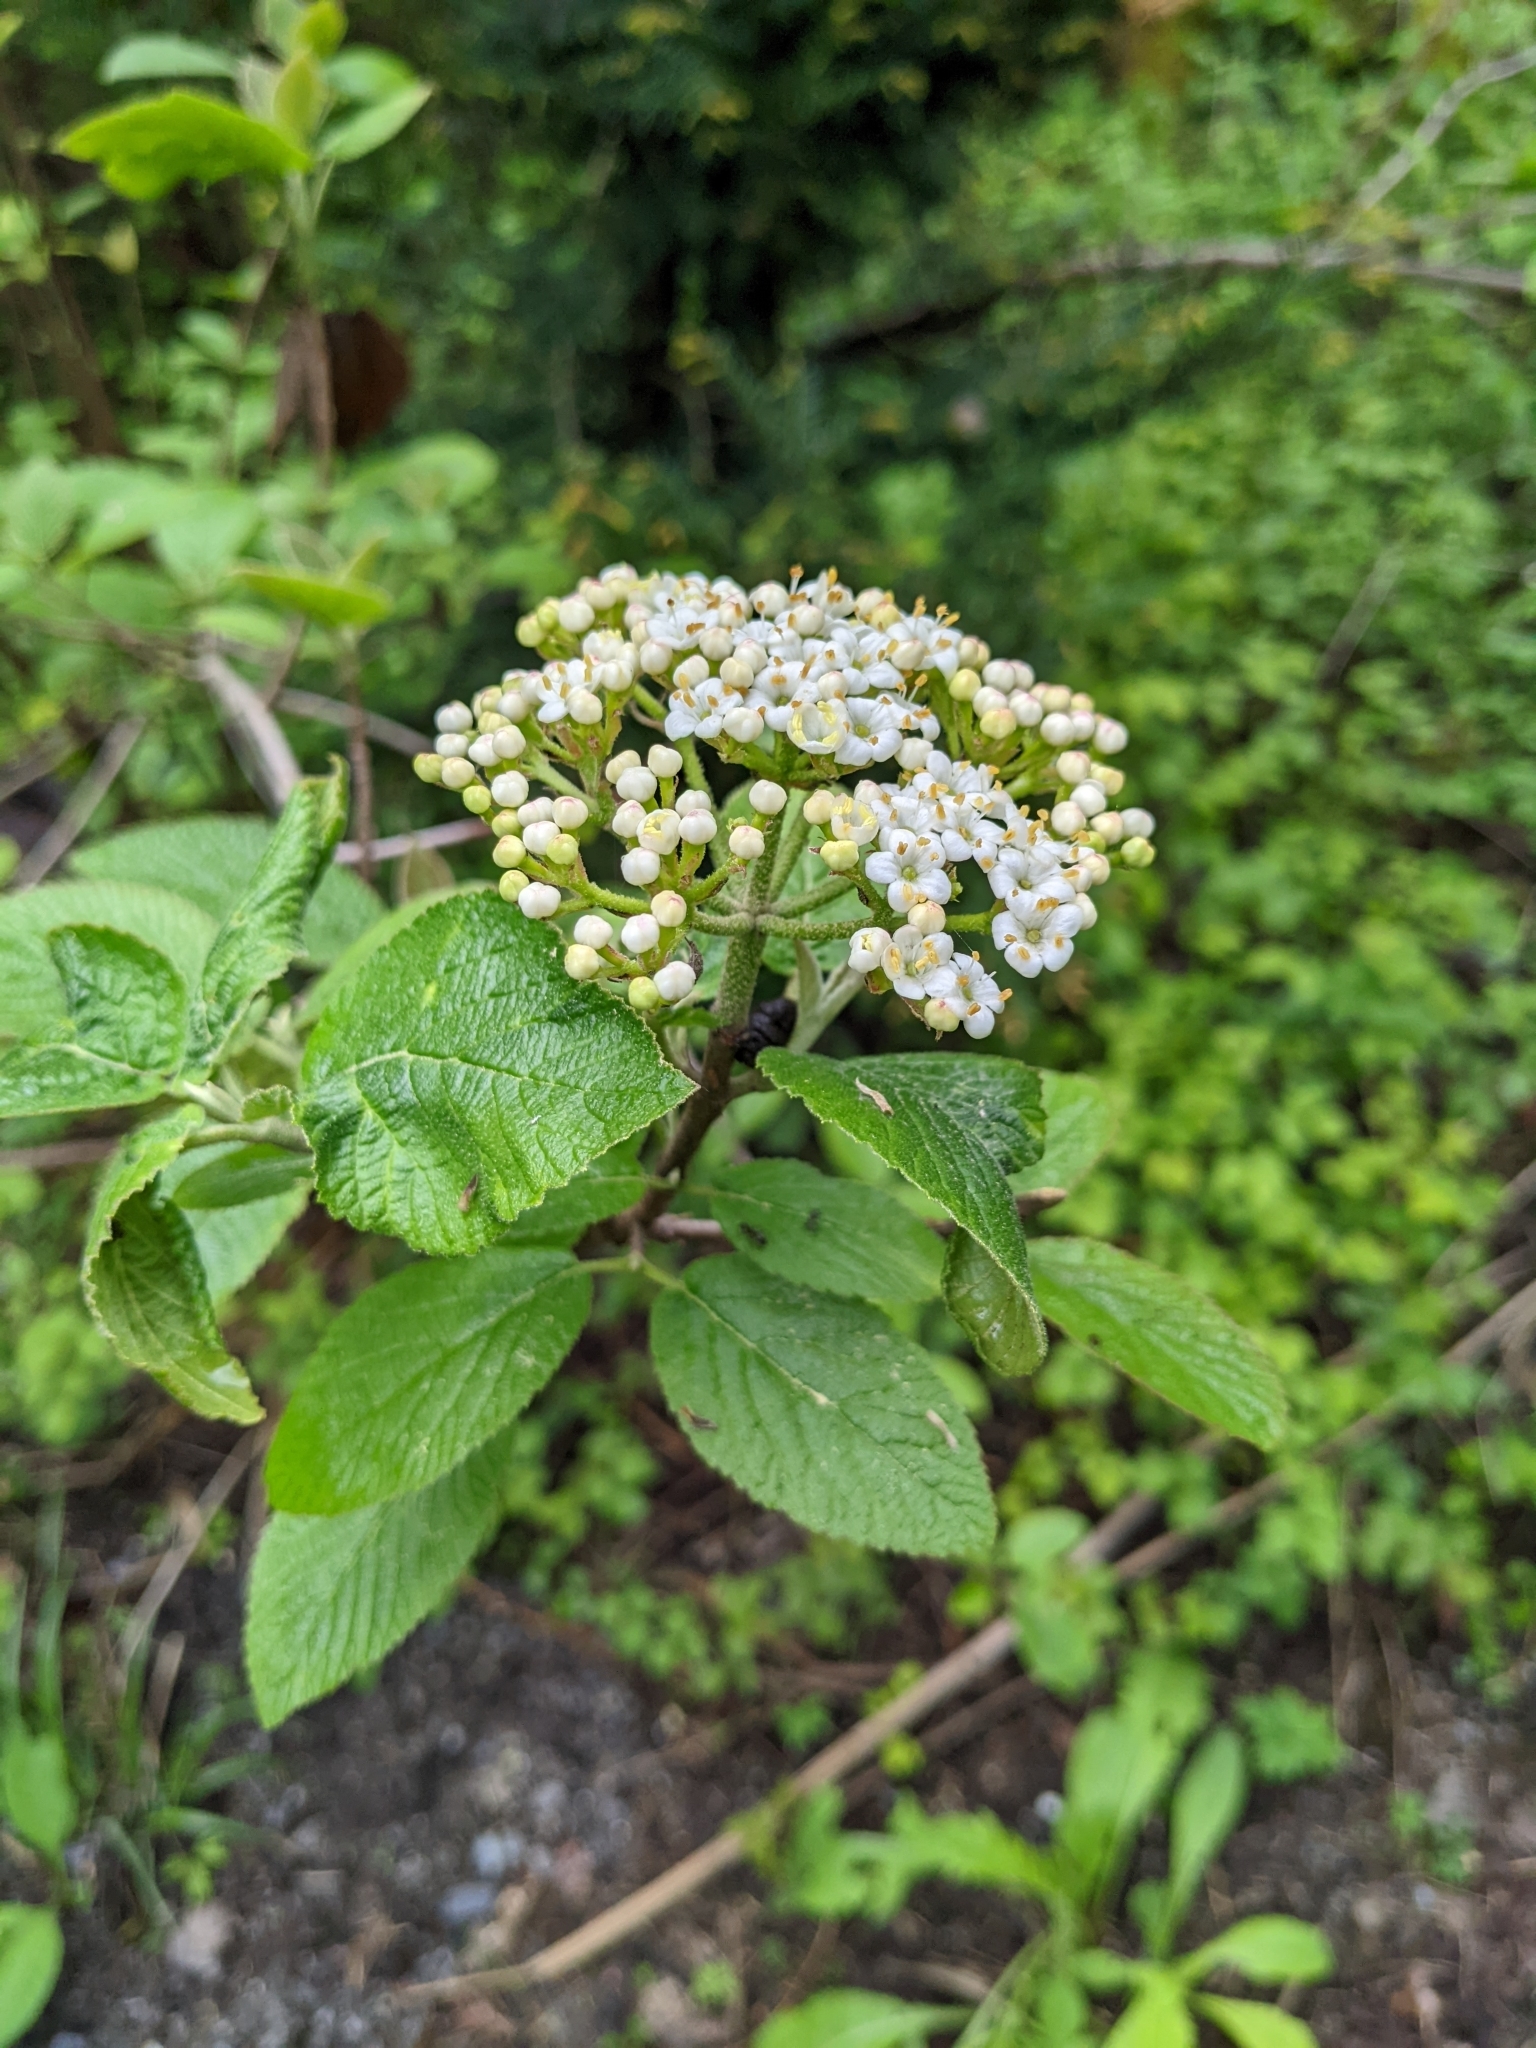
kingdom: Plantae
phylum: Tracheophyta
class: Magnoliopsida
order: Dipsacales
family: Viburnaceae
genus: Viburnum
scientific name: Viburnum lantana
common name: Wayfaring tree
